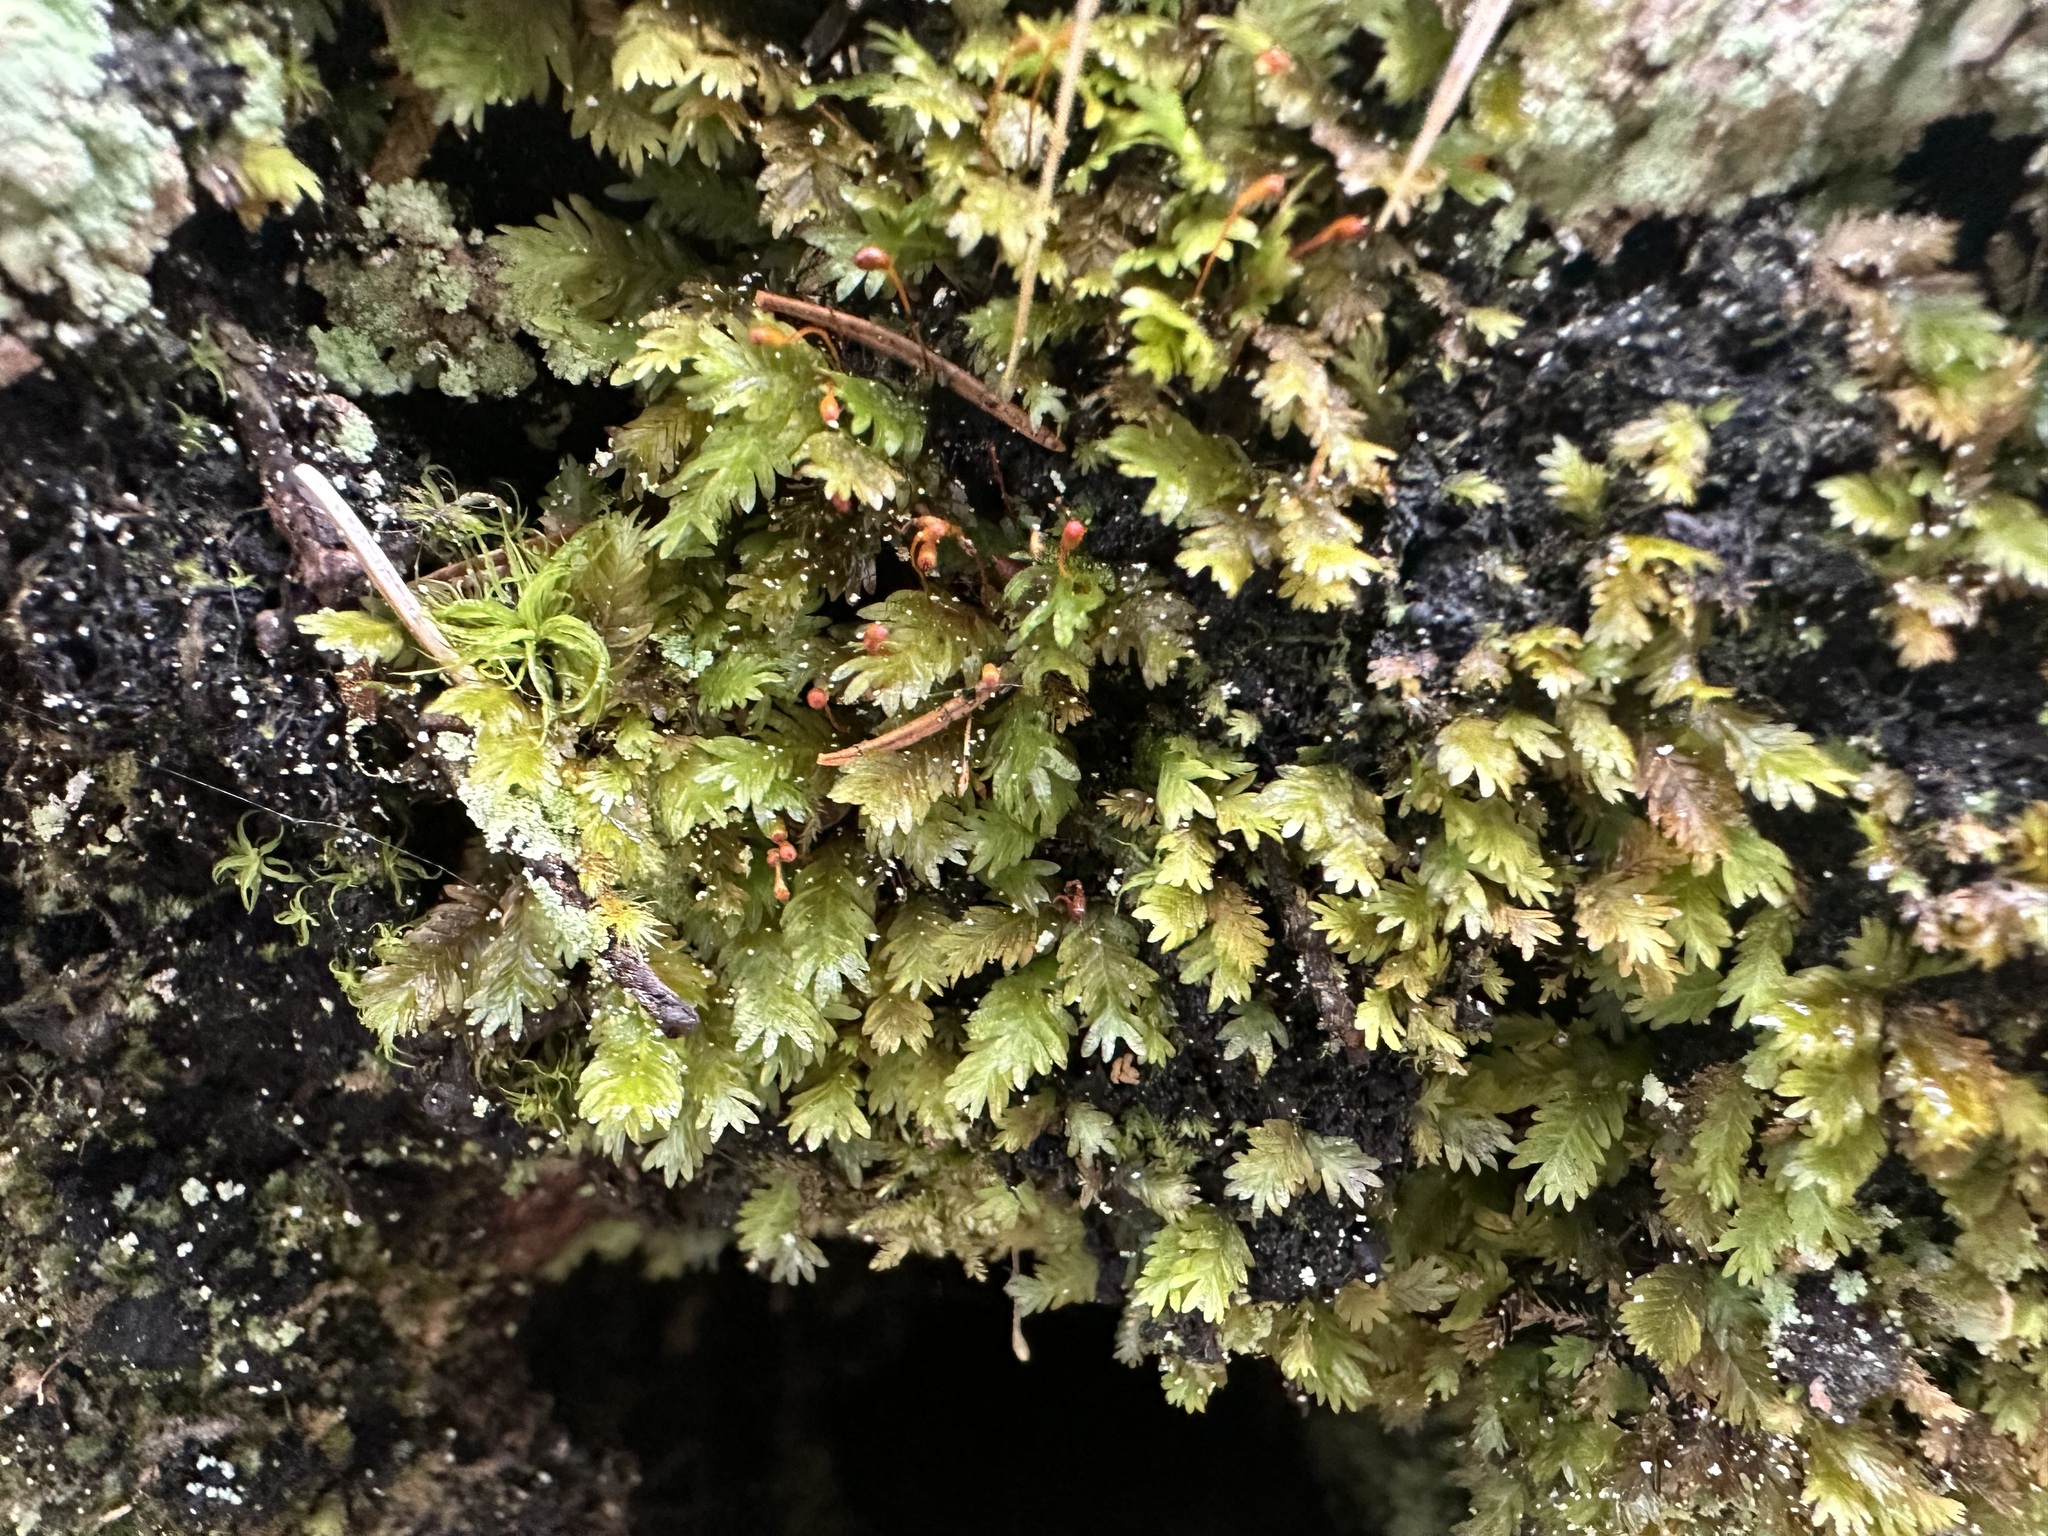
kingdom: Plantae
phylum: Bryophyta
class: Bryopsida
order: Dicranales
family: Fissidentaceae
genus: Fissidens
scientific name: Fissidens dubius
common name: Rock pocket moss
